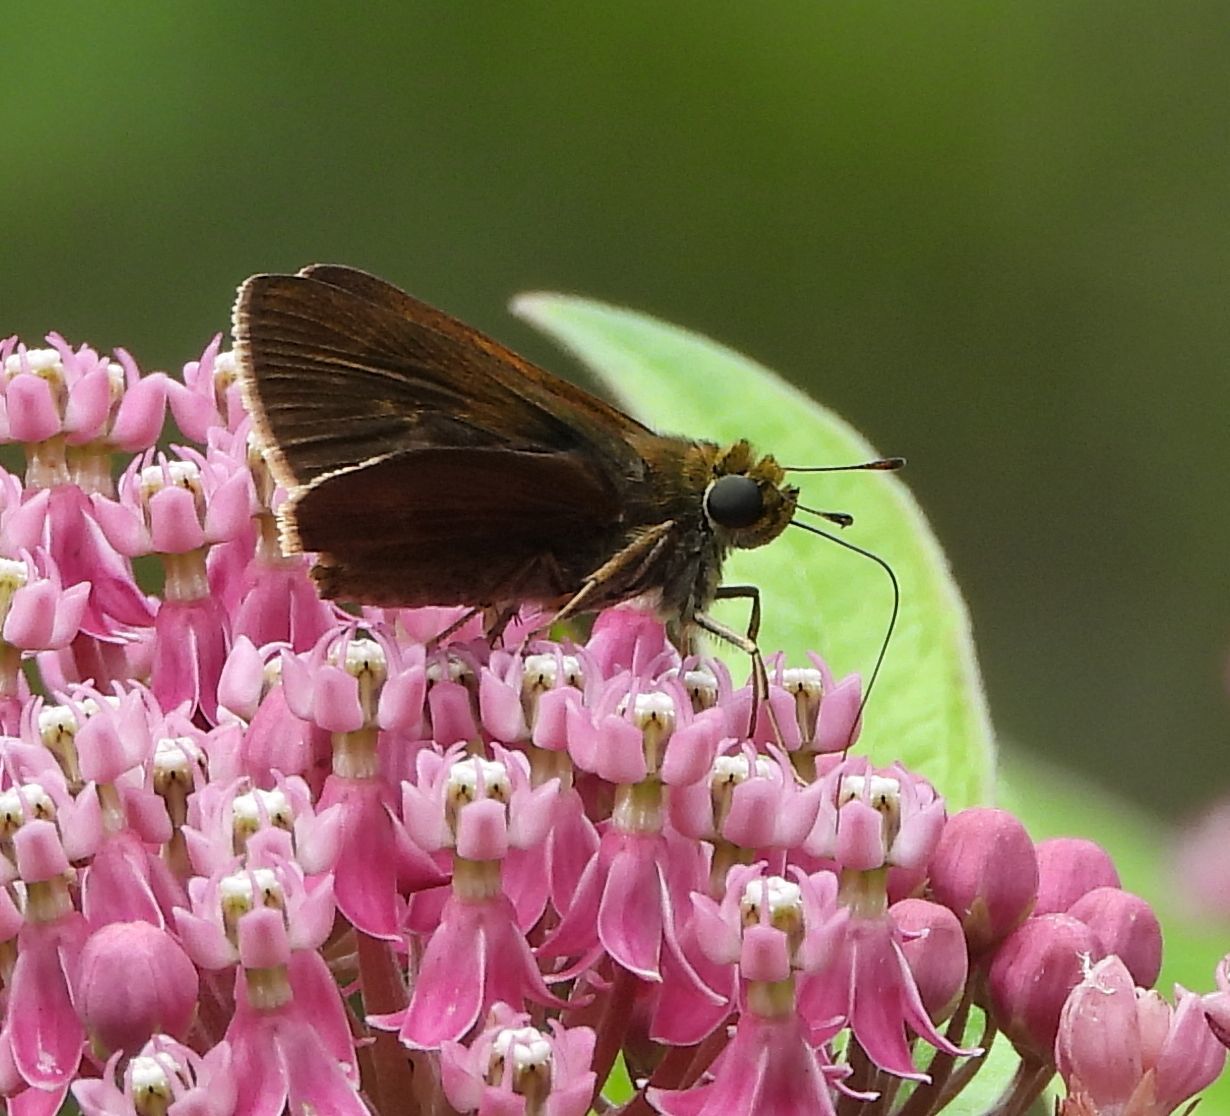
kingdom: Animalia
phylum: Arthropoda
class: Insecta
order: Lepidoptera
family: Hesperiidae
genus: Euphyes
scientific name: Euphyes vestris
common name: Dun skipper
